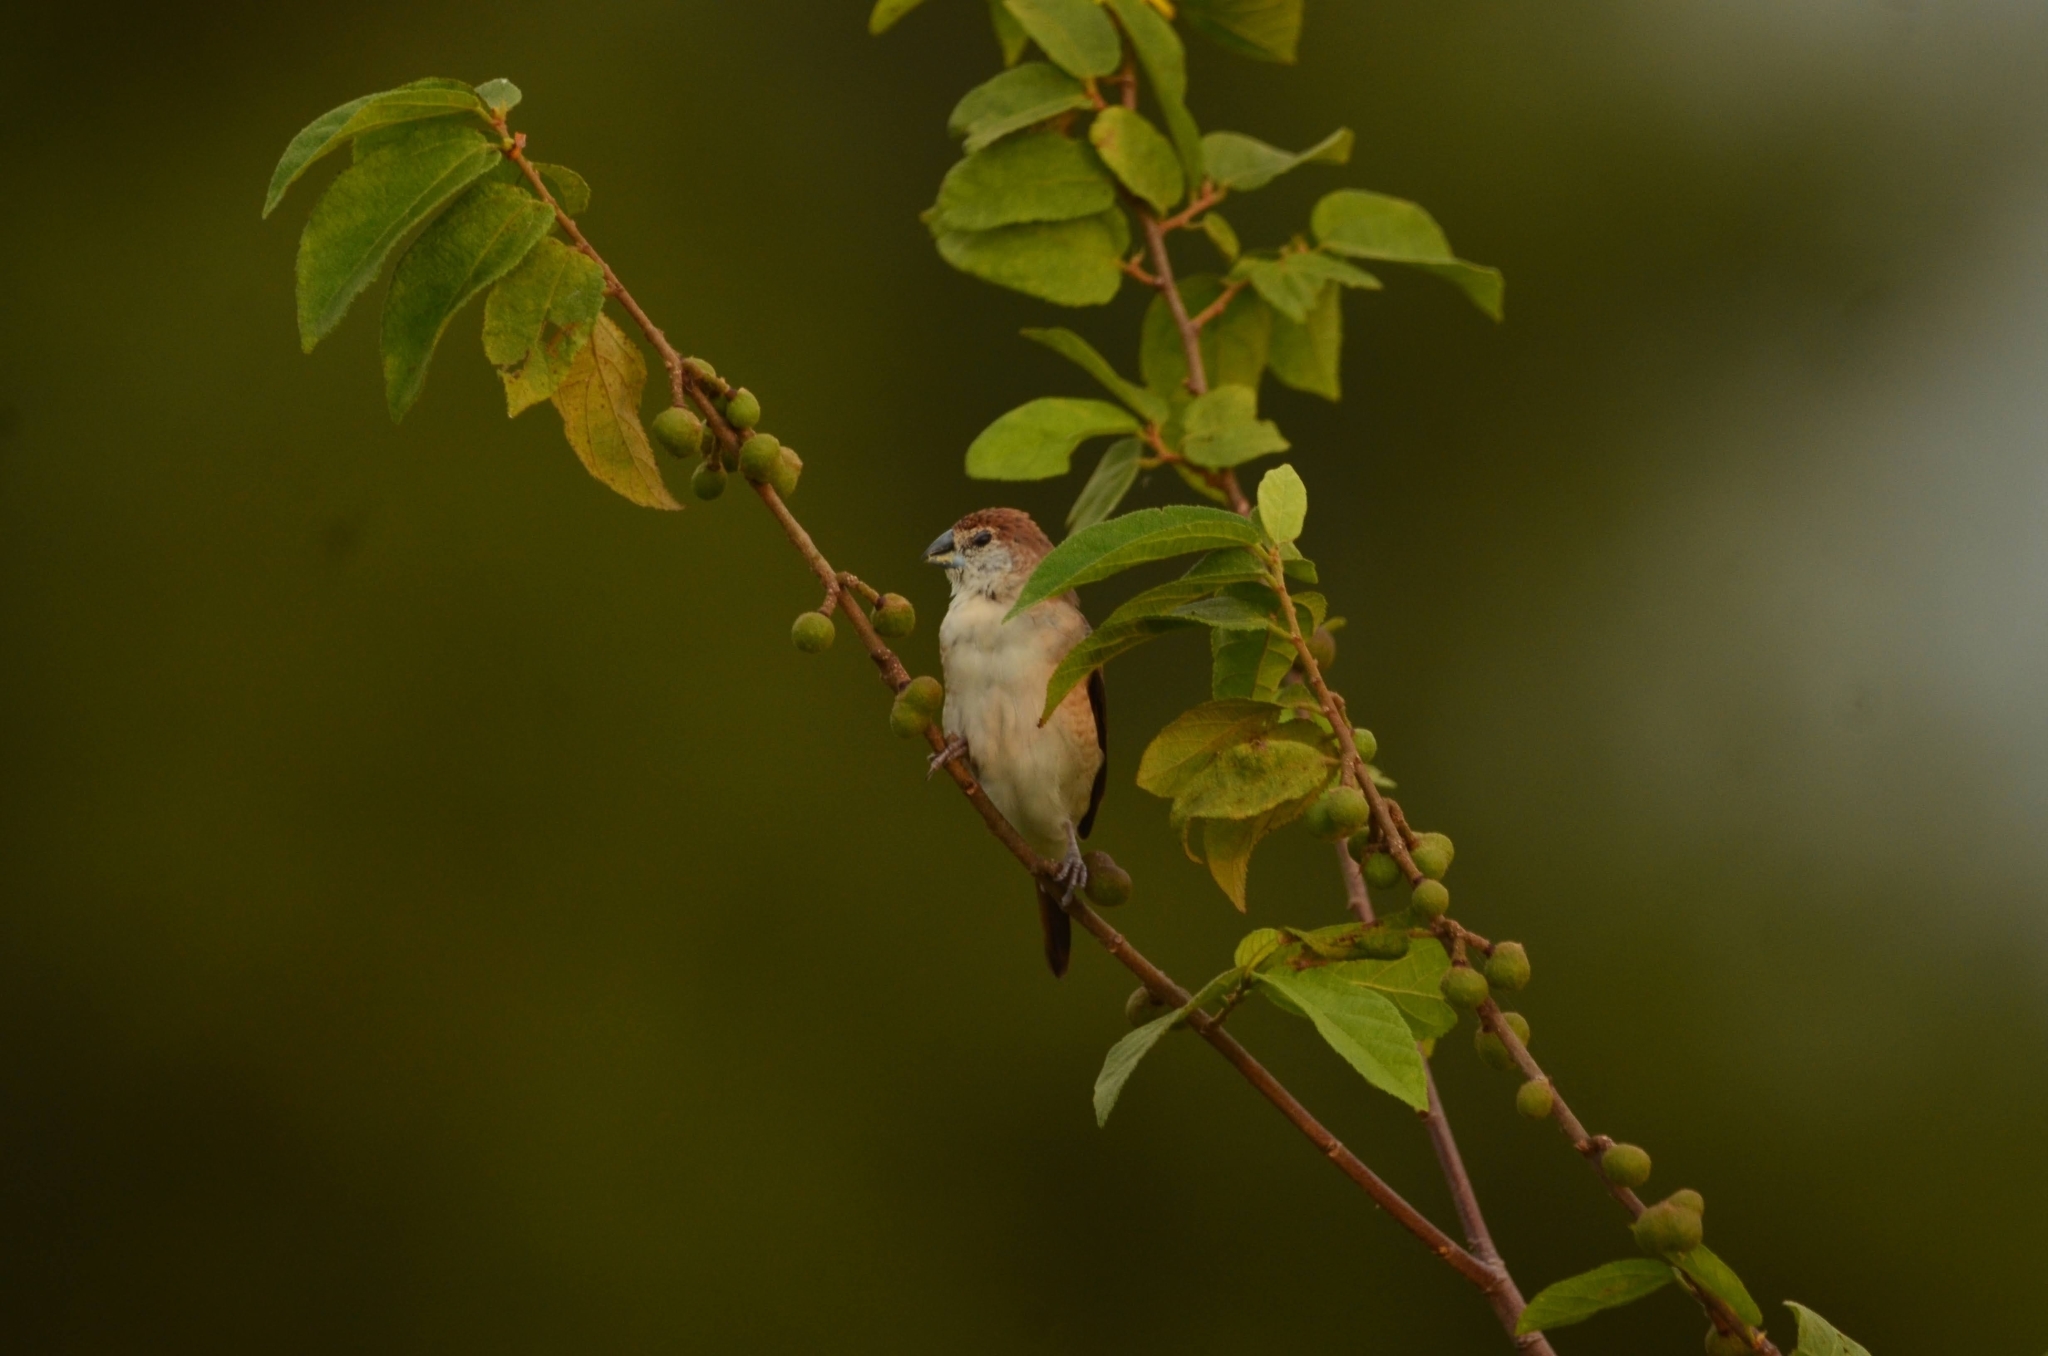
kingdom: Animalia
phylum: Chordata
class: Aves
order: Passeriformes
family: Estrildidae
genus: Euodice
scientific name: Euodice malabarica
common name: Indian silverbill
